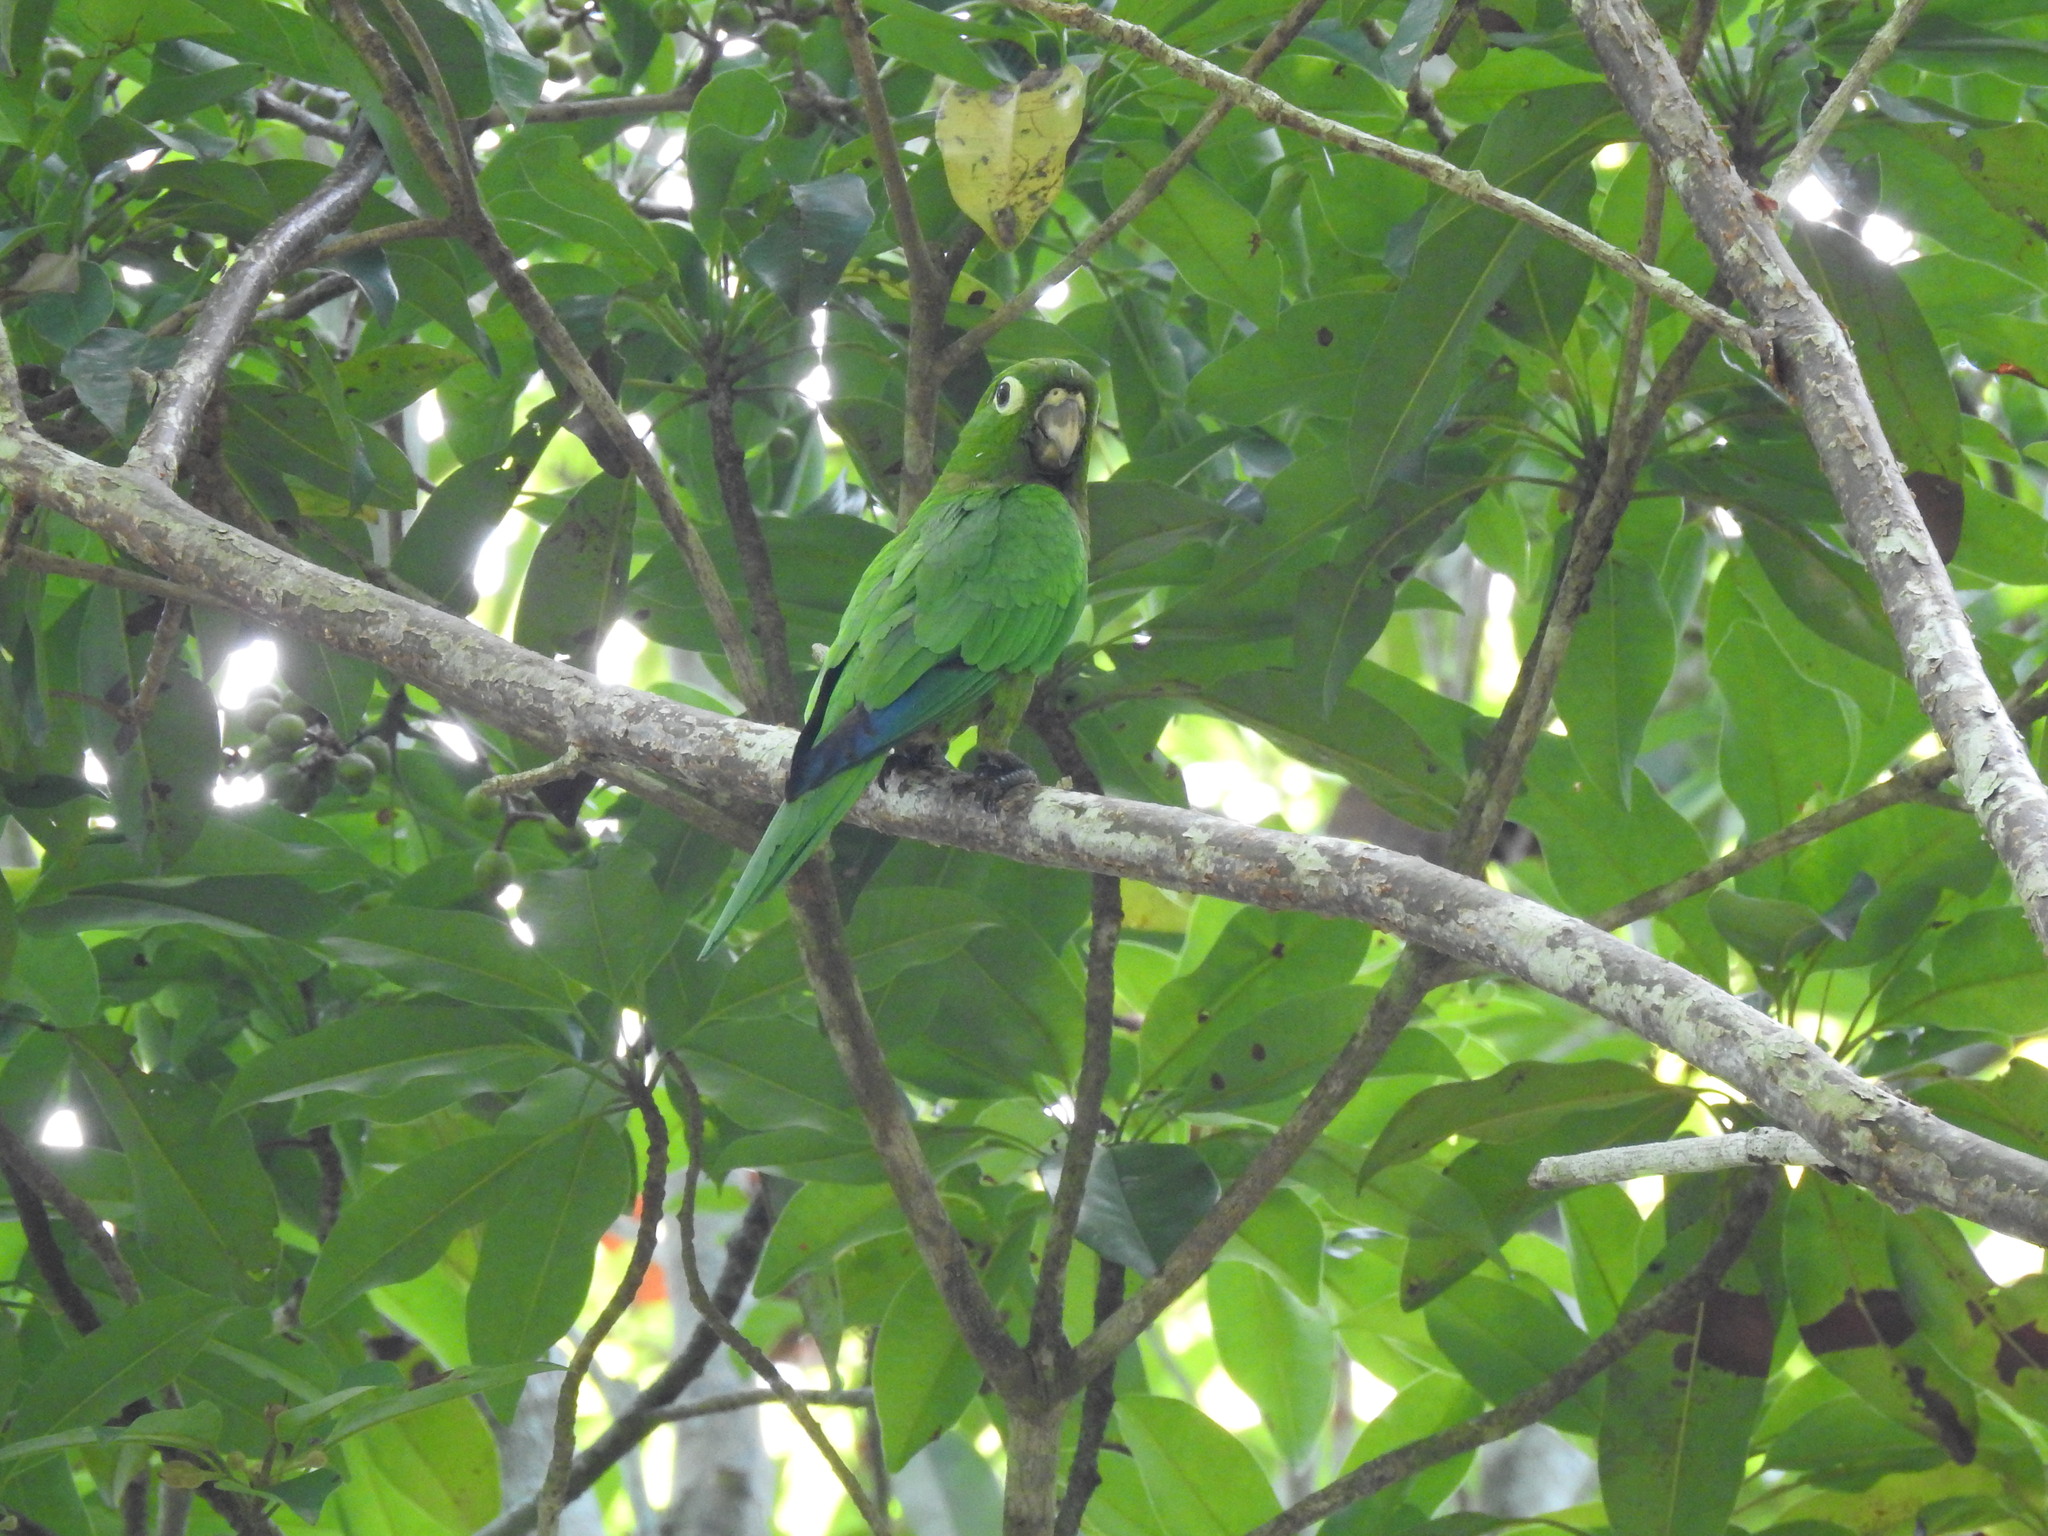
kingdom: Animalia
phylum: Chordata
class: Aves
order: Psittaciformes
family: Psittacidae
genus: Aratinga
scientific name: Aratinga nana
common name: Olive-throated parakeet
